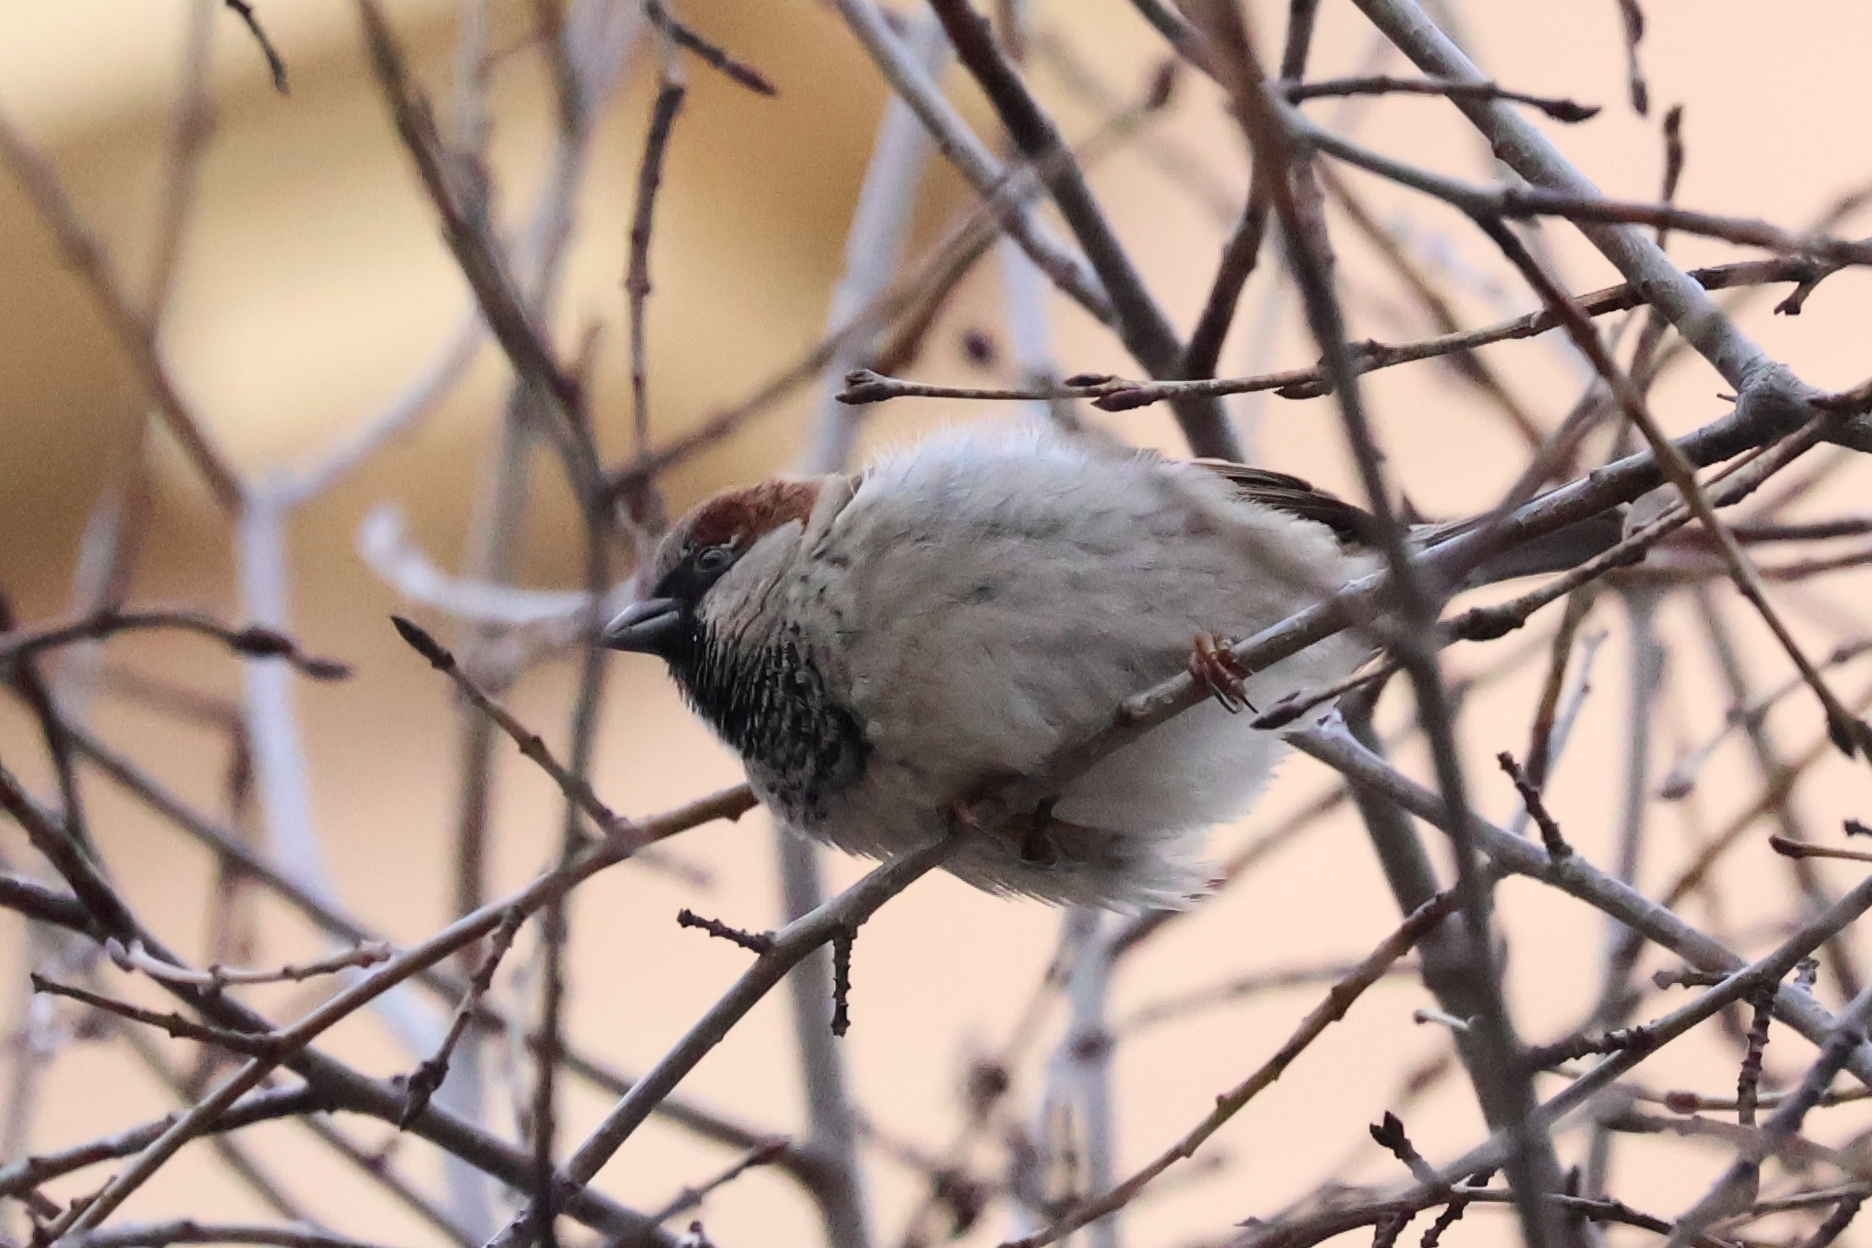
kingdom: Animalia
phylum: Chordata
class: Aves
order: Passeriformes
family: Passeridae
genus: Passer
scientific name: Passer domesticus
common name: House sparrow
